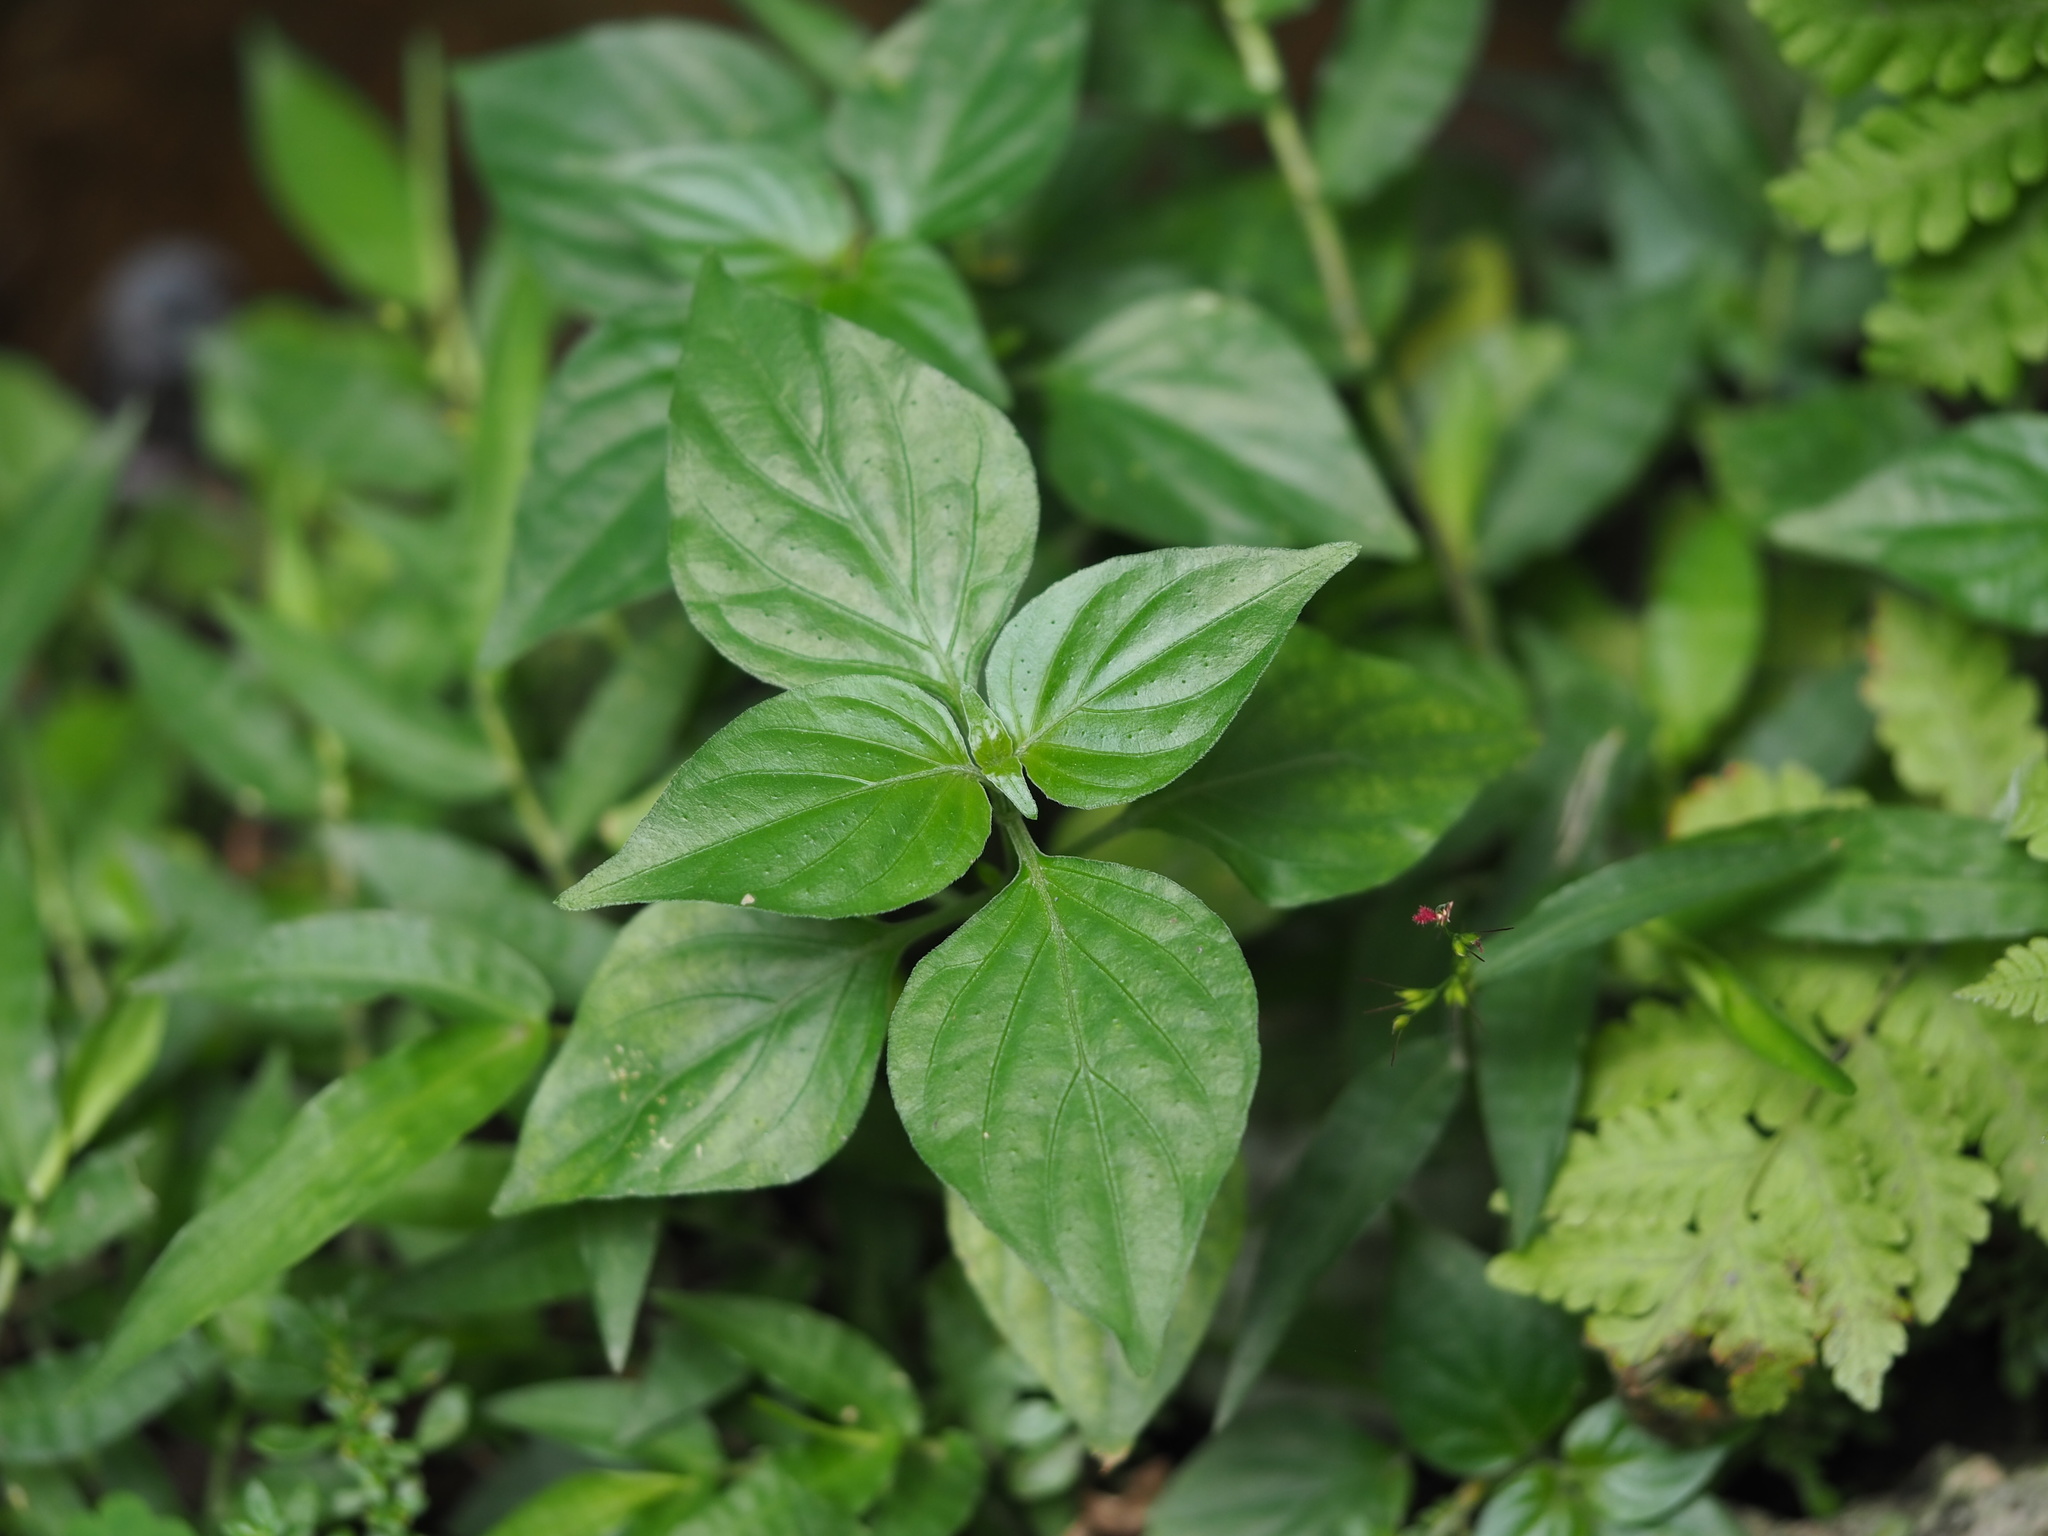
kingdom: Plantae
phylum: Tracheophyta
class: Magnoliopsida
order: Lamiales
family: Acanthaceae
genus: Dicliptera
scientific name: Dicliptera chinensis
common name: Chinese foldwing
